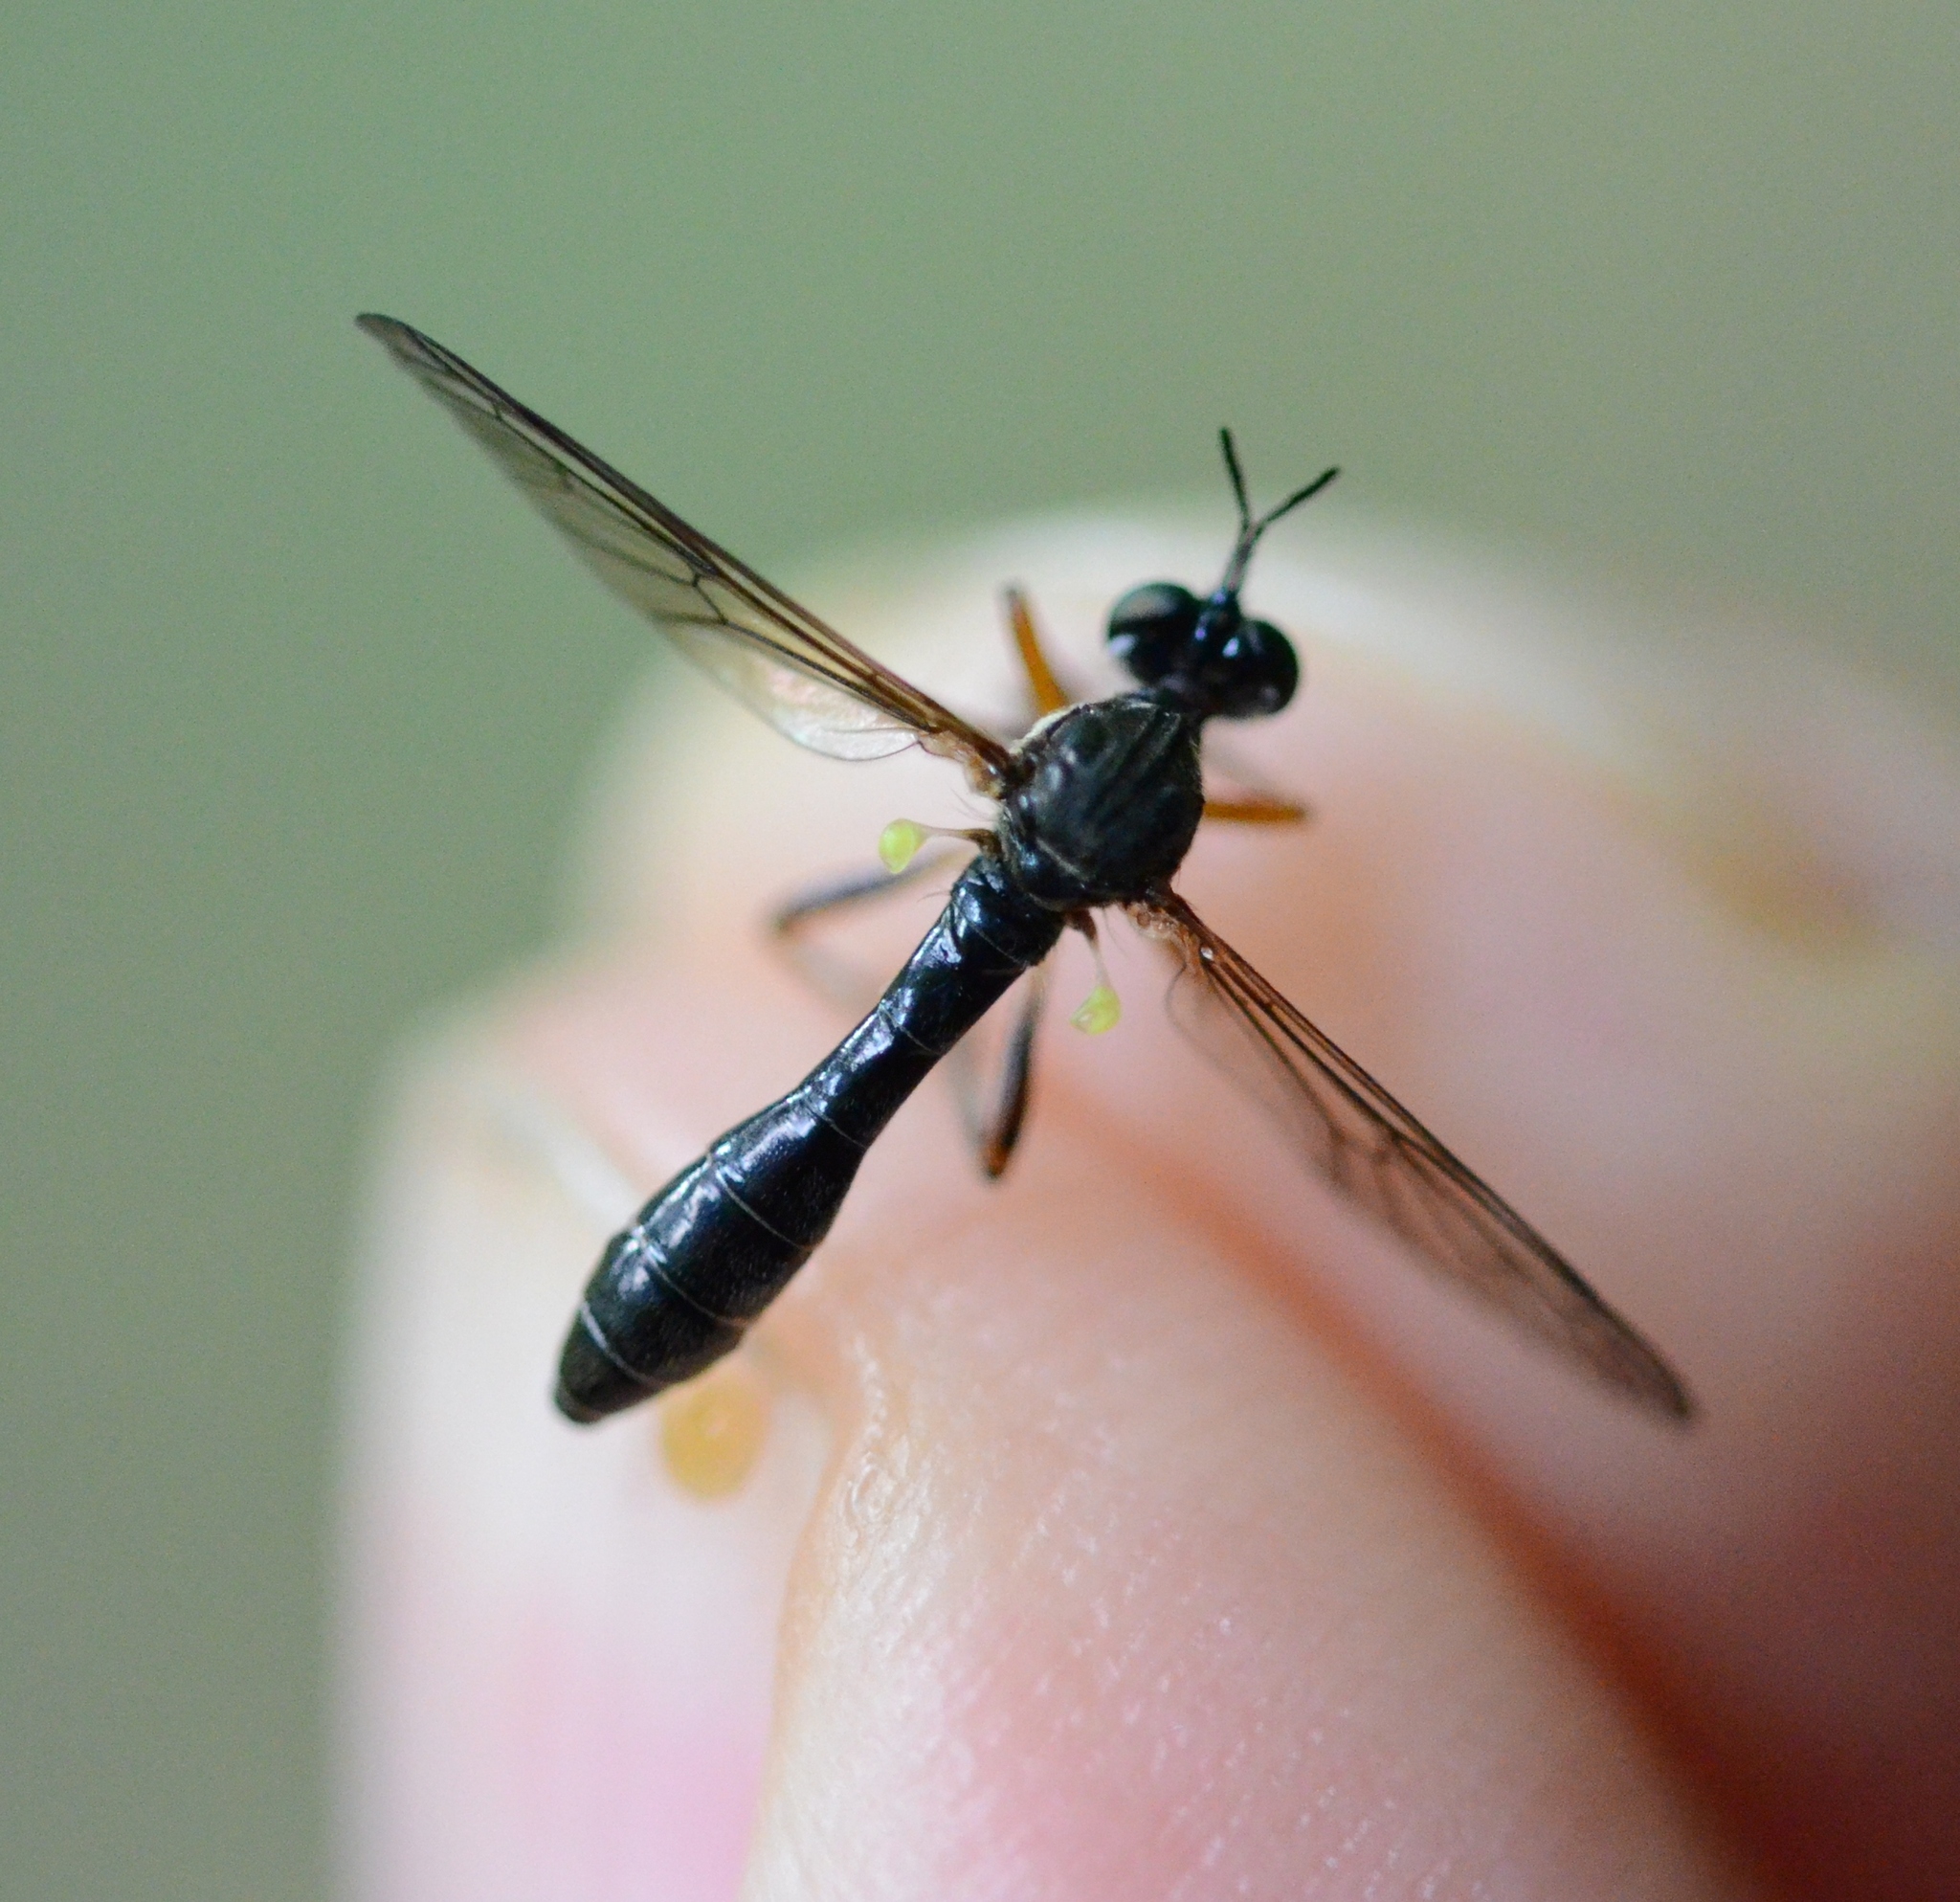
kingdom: Animalia
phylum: Arthropoda
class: Insecta
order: Diptera
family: Asilidae
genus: Dioctria
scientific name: Dioctria hyalipennis
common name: Stripe-legged robberfly
